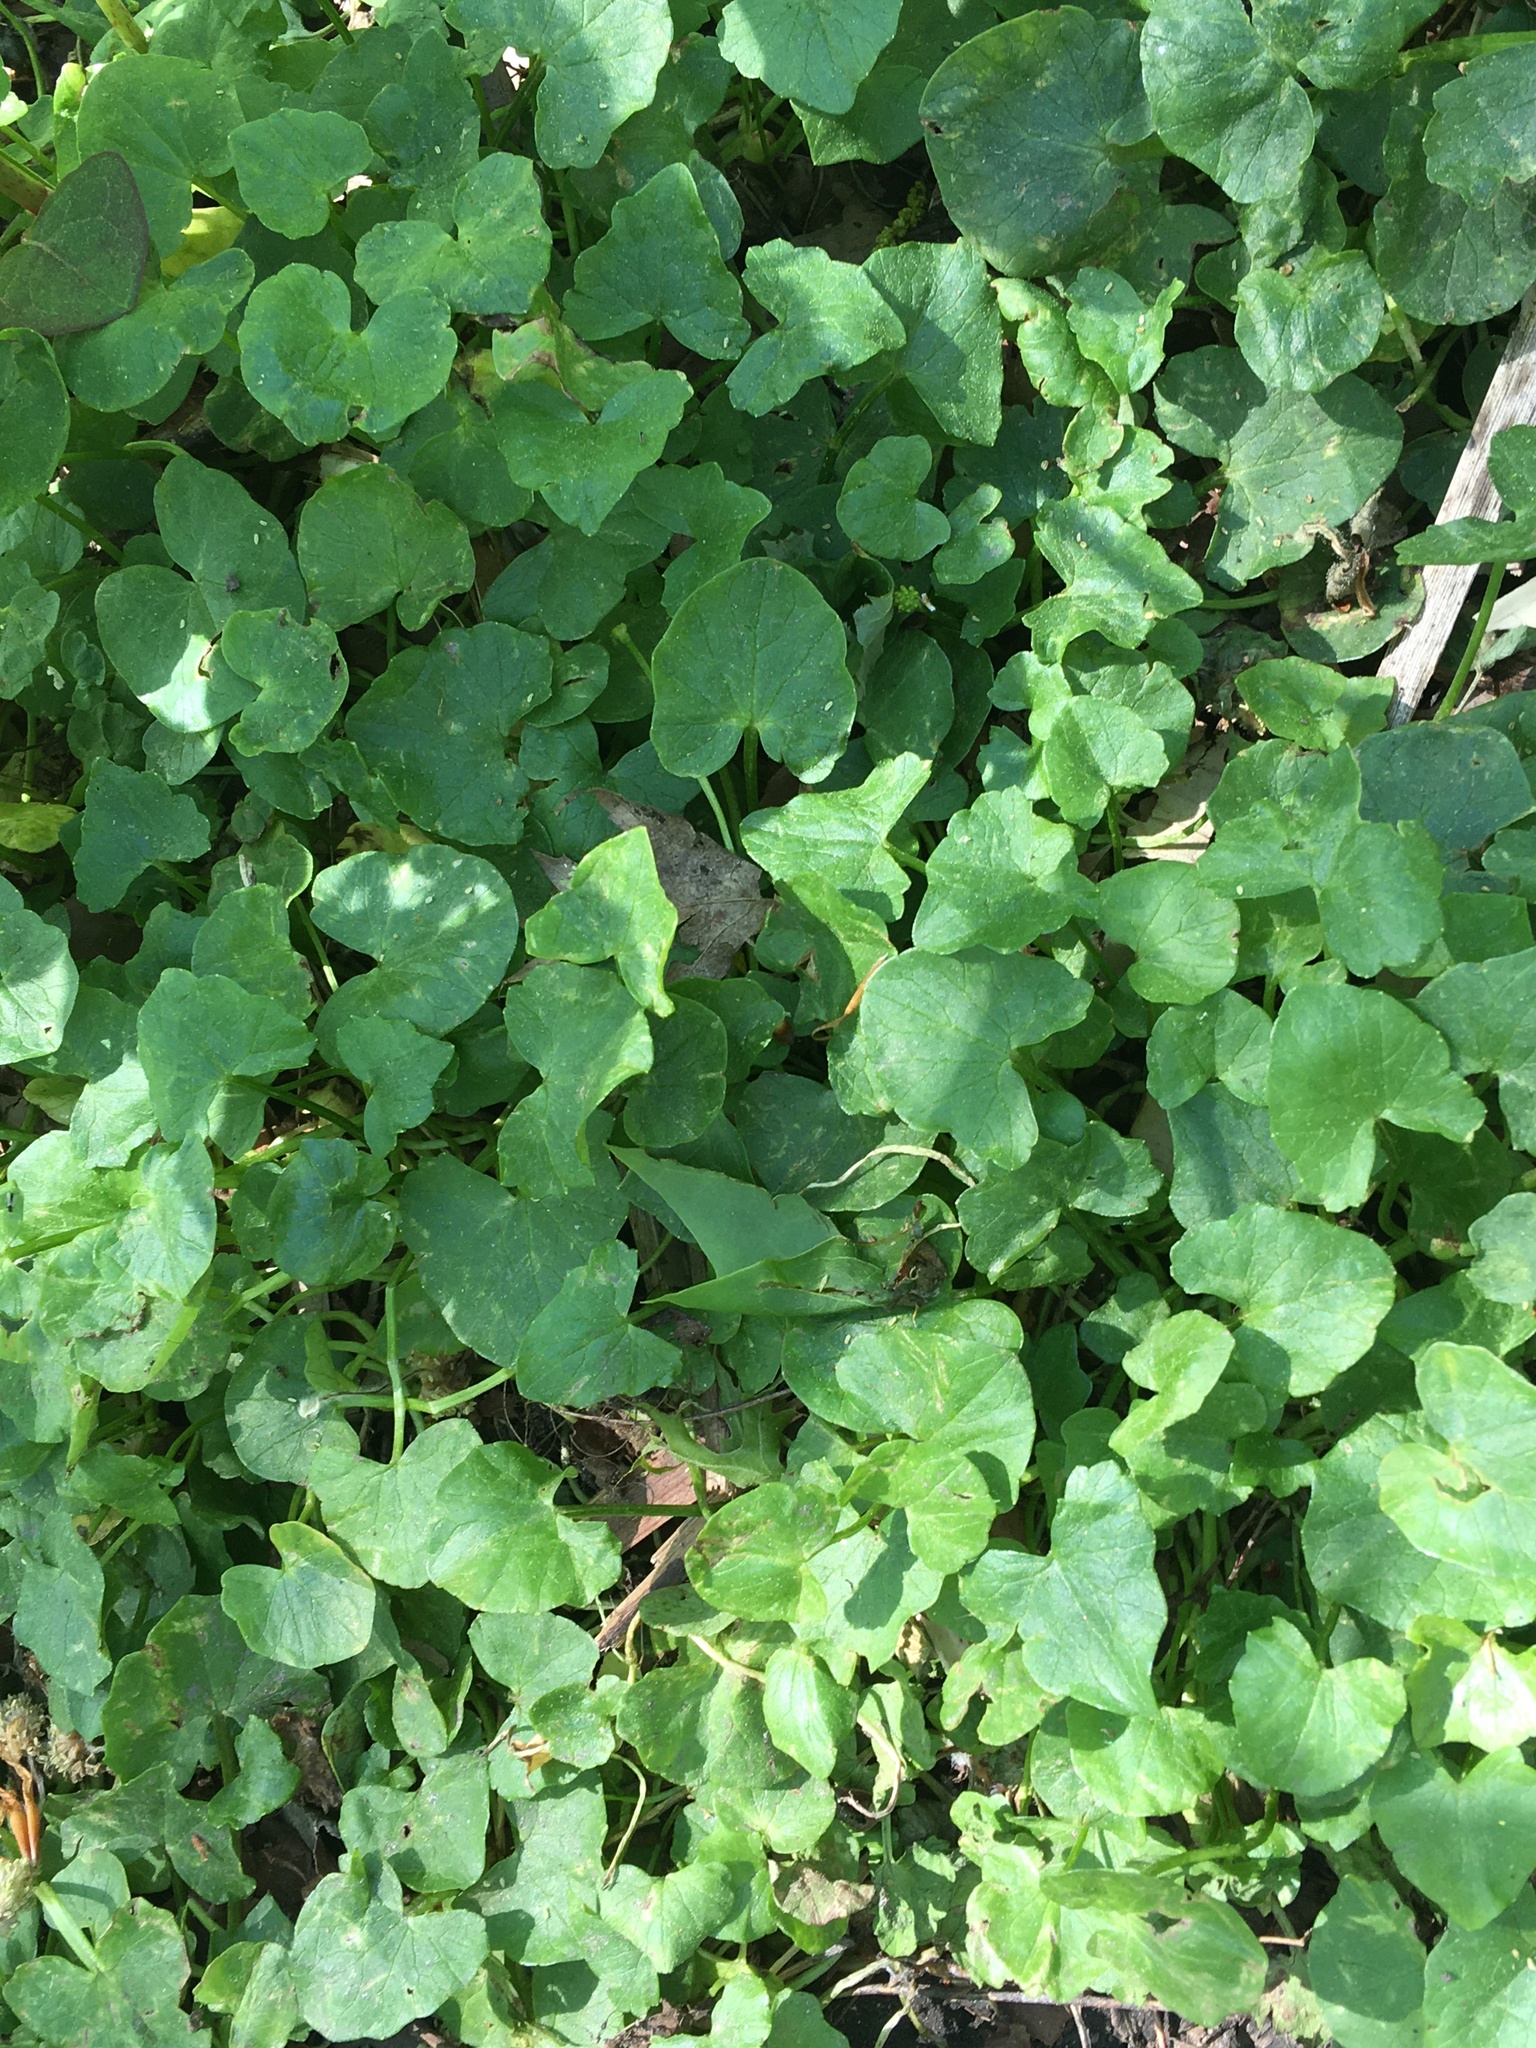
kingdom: Plantae
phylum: Tracheophyta
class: Magnoliopsida
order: Ranunculales
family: Ranunculaceae
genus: Ficaria
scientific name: Ficaria verna
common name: Lesser celandine
